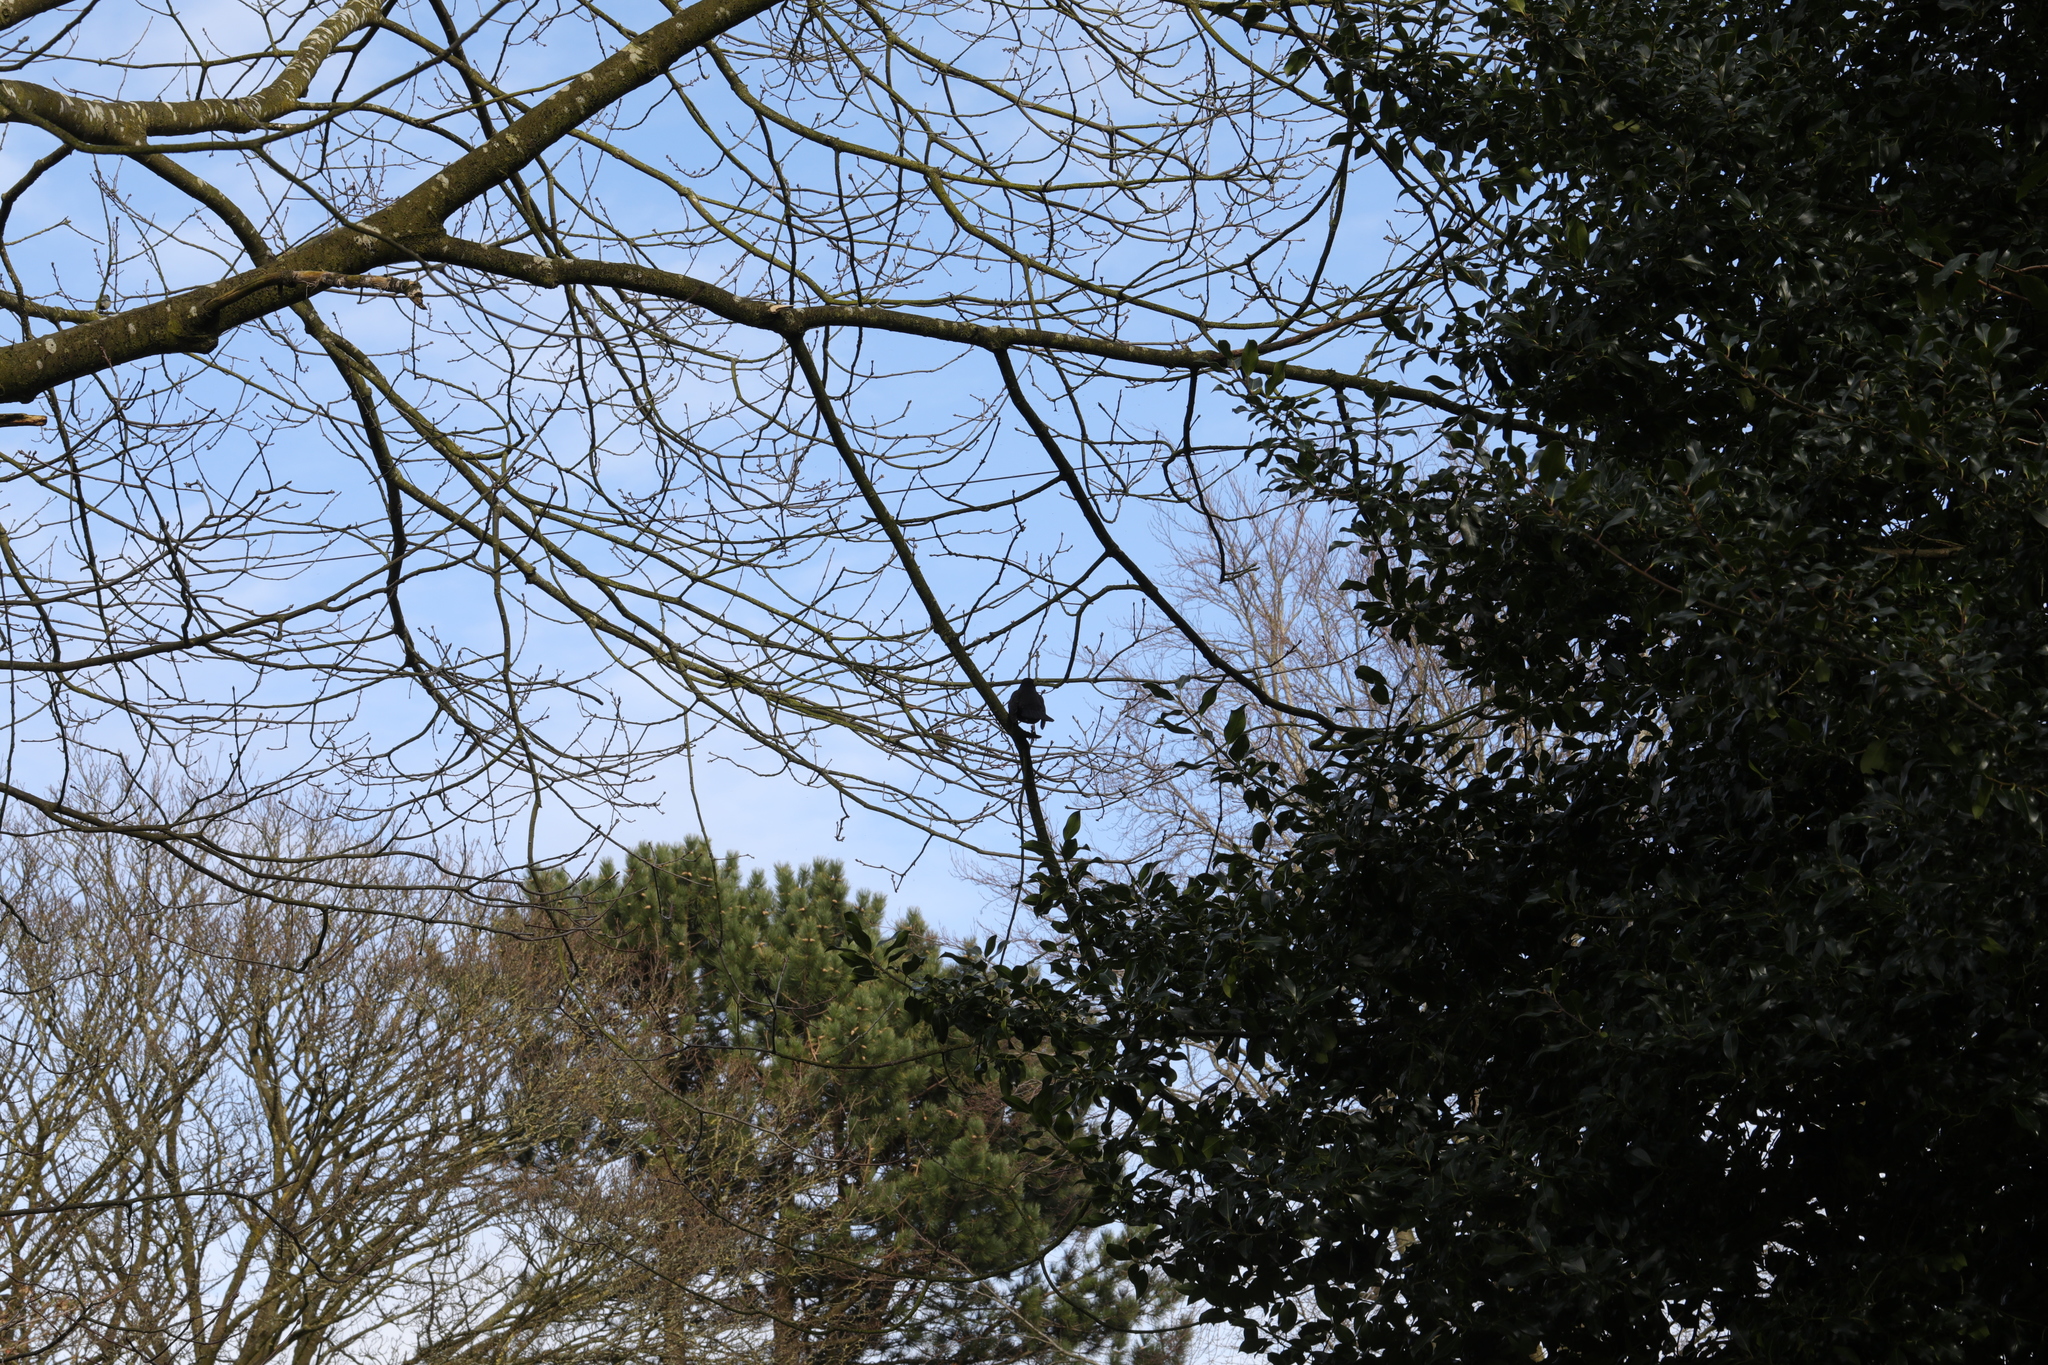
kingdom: Animalia
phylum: Chordata
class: Aves
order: Passeriformes
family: Turdidae
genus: Turdus
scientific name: Turdus merula
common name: Common blackbird
